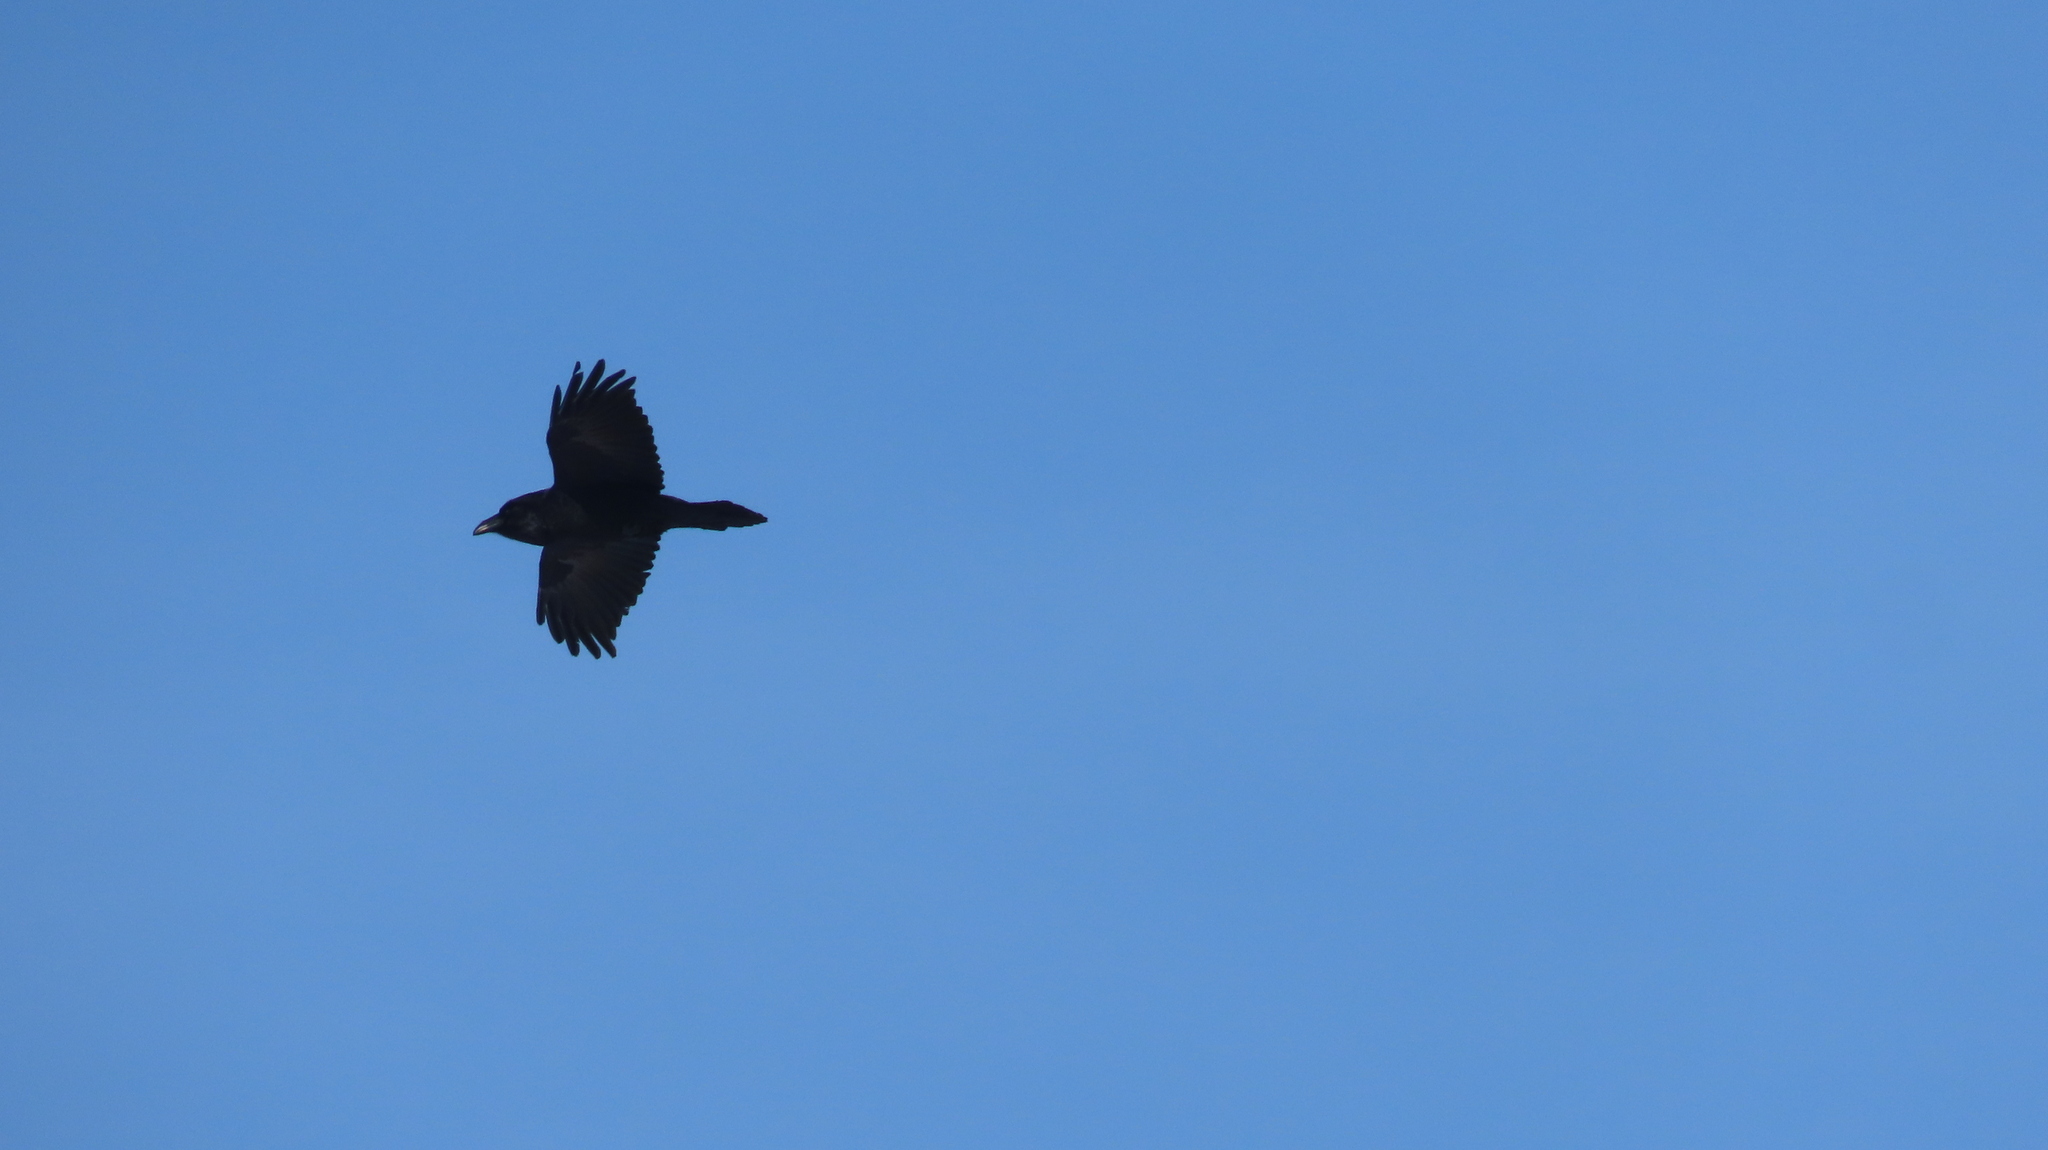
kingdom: Animalia
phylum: Chordata
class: Aves
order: Passeriformes
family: Corvidae
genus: Corvus
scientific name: Corvus corax
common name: Common raven
